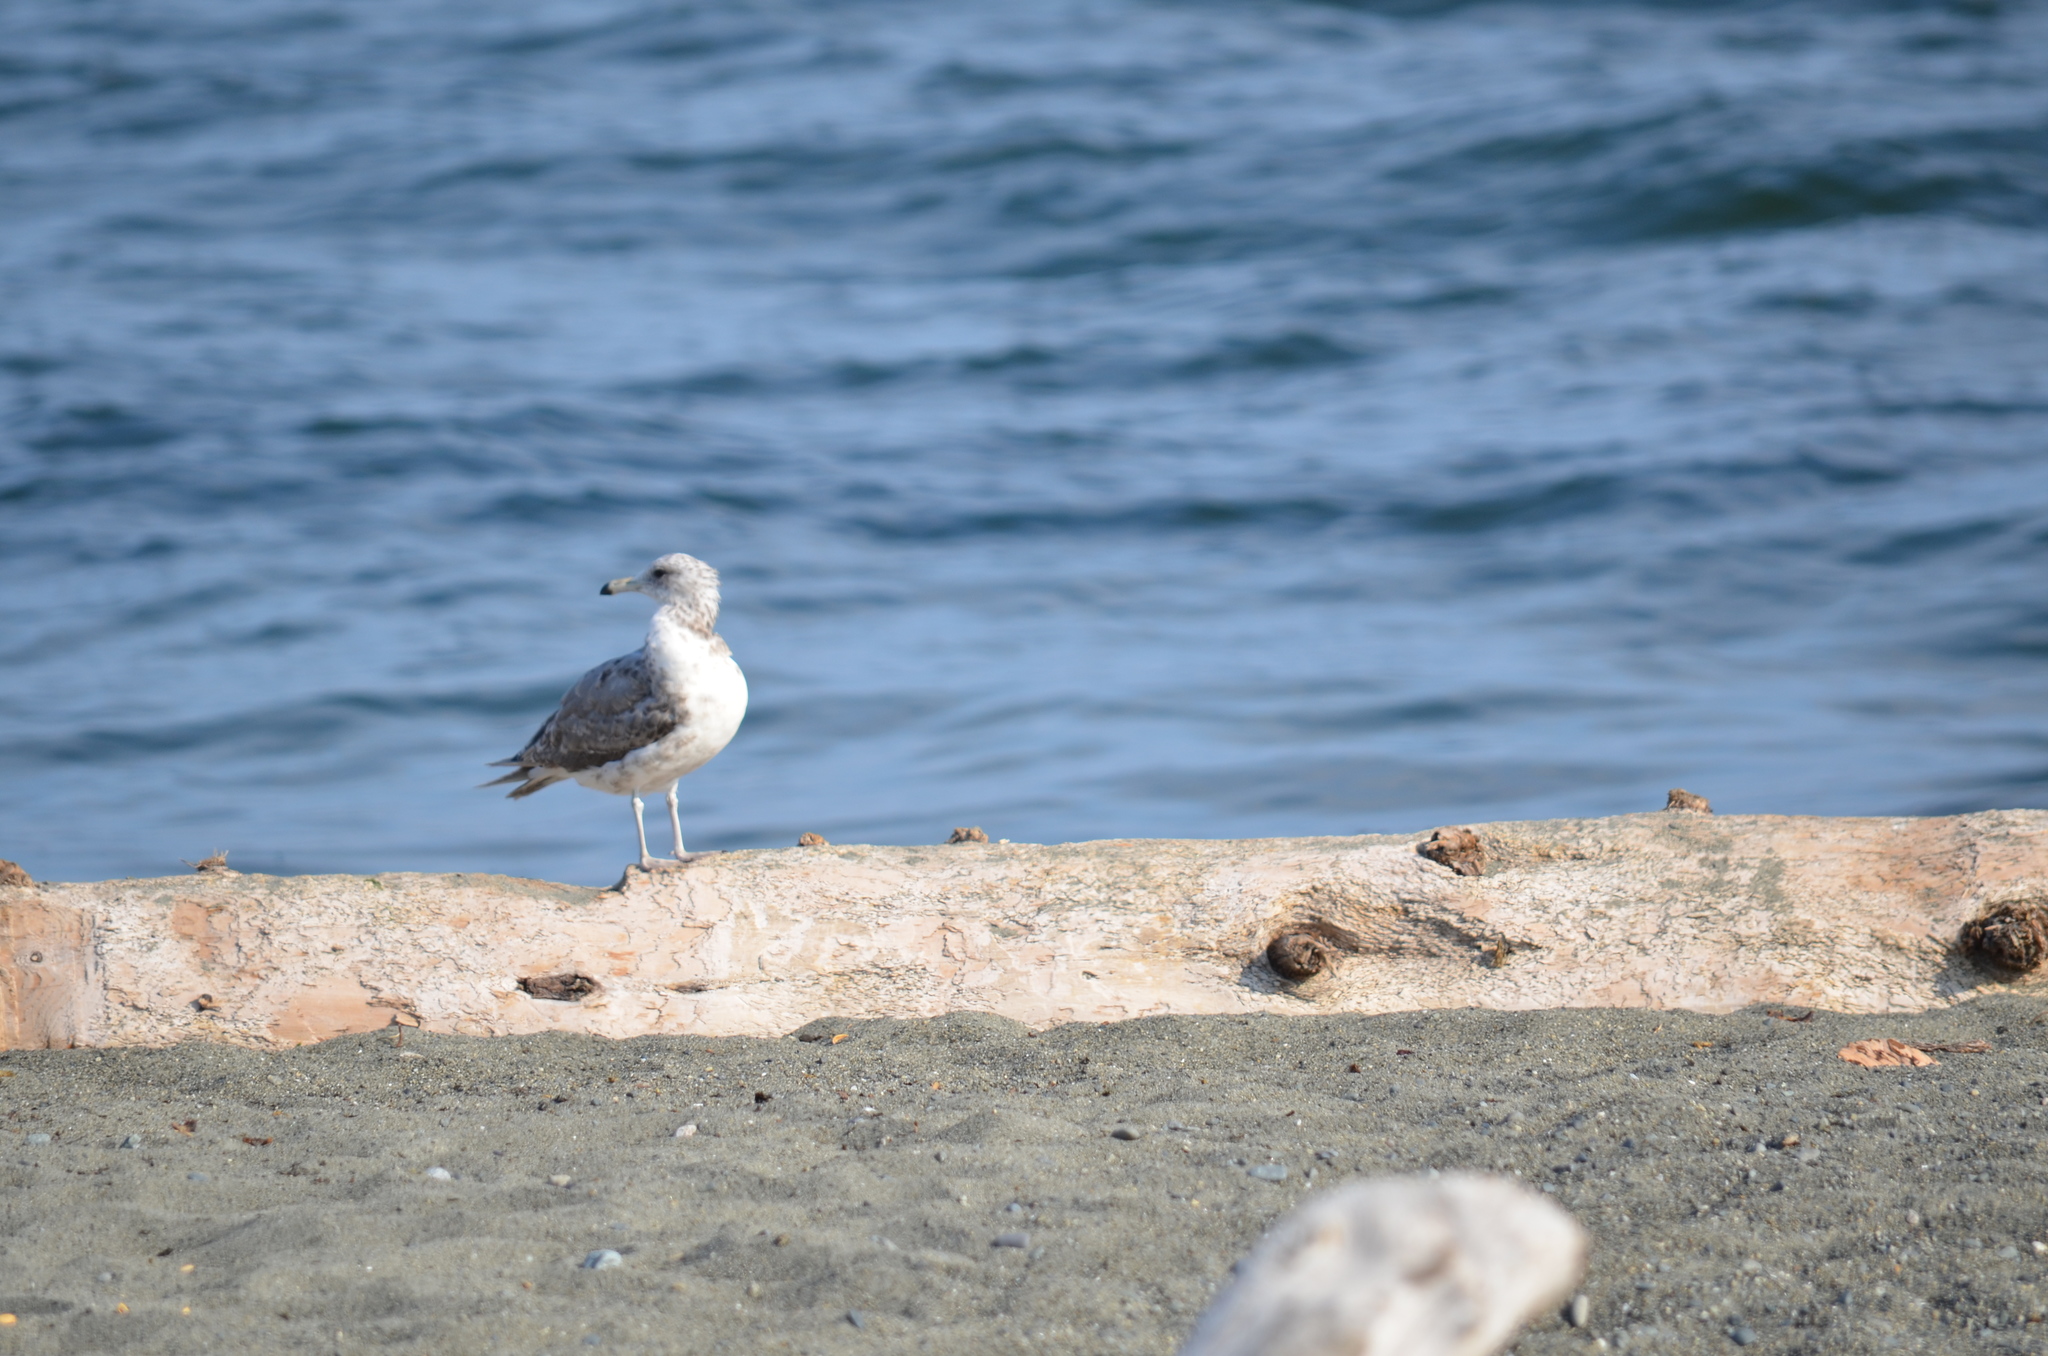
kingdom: Animalia
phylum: Chordata
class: Aves
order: Charadriiformes
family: Laridae
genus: Larus
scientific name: Larus californicus
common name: California gull
